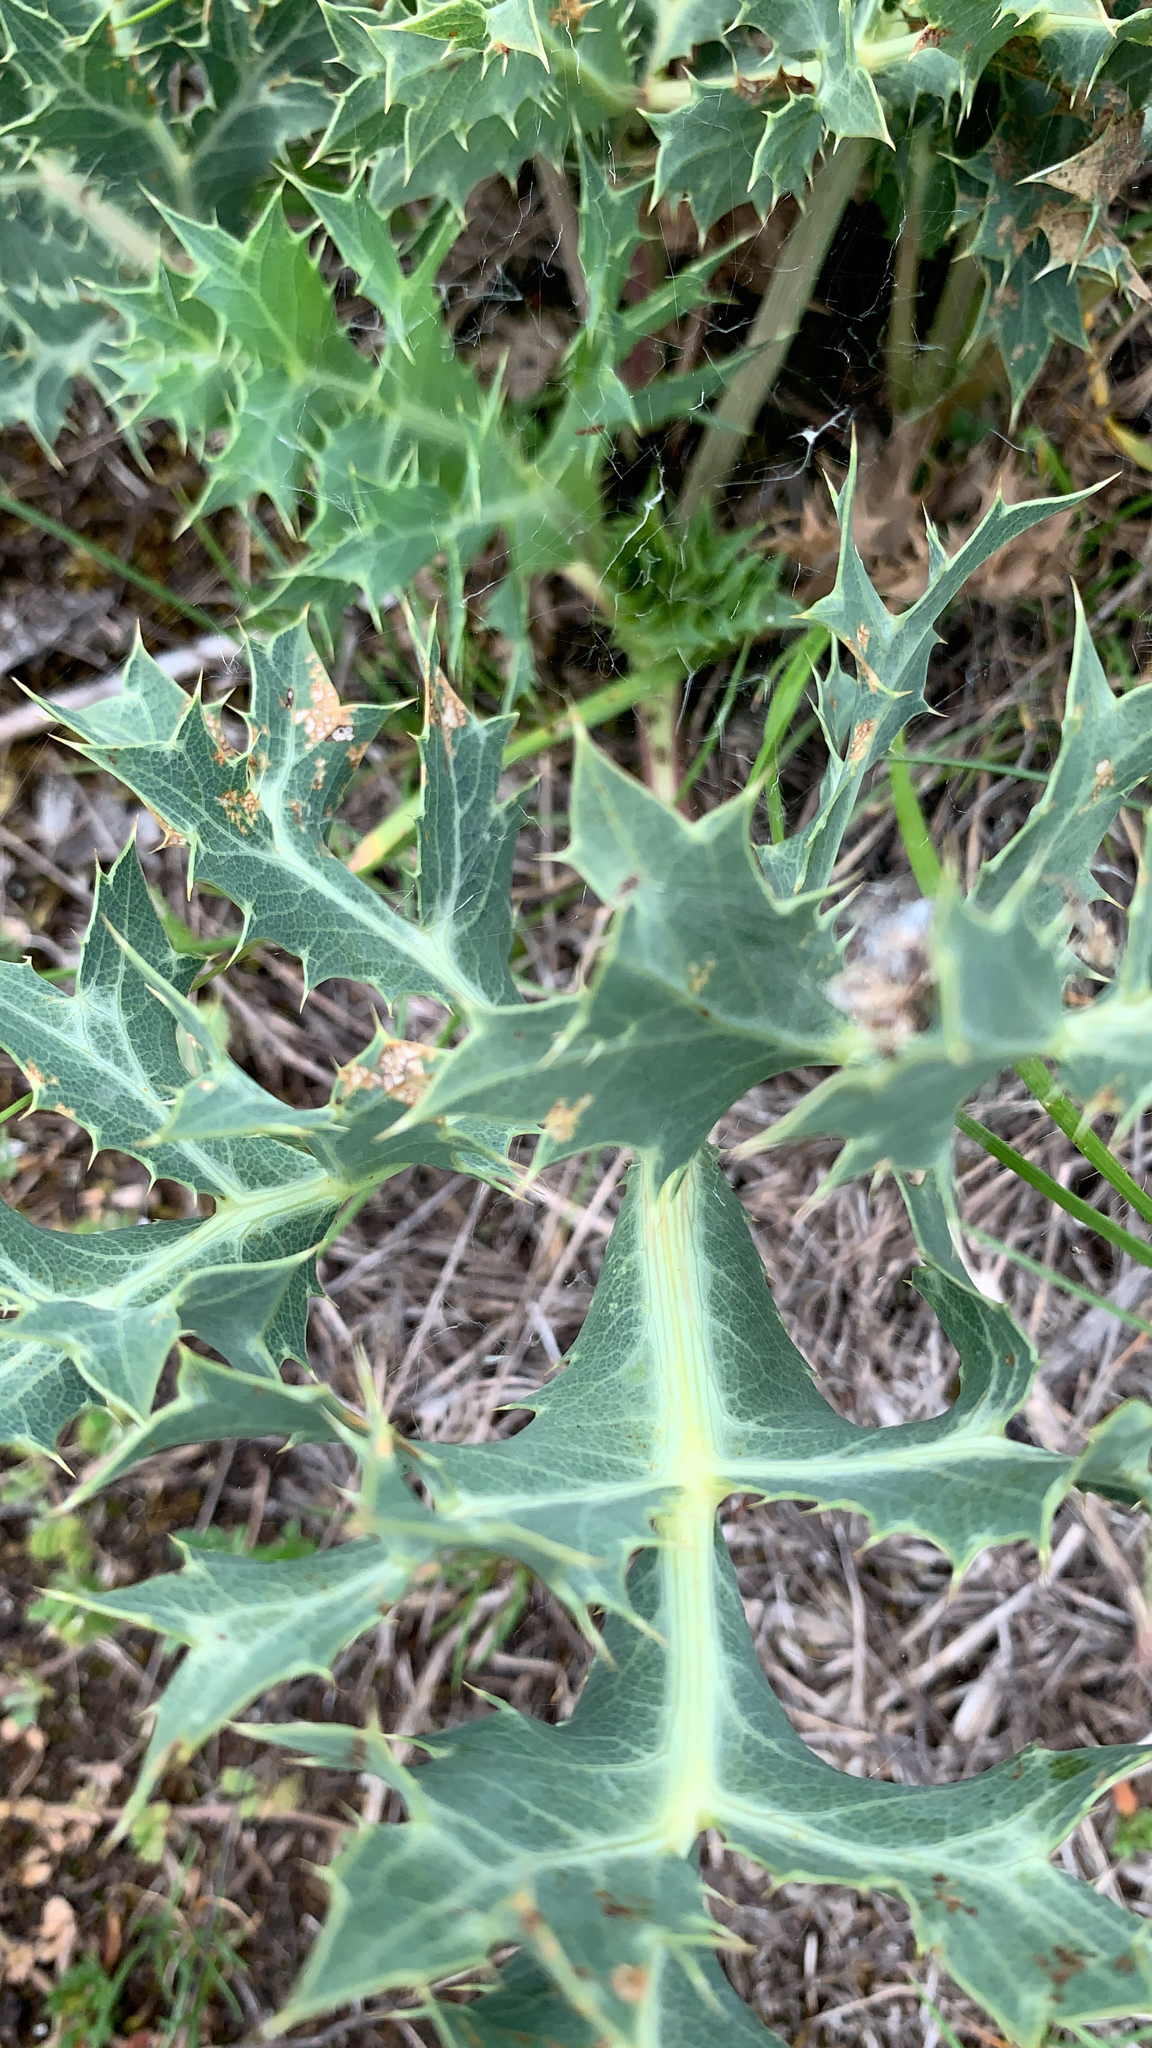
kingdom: Plantae
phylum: Tracheophyta
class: Magnoliopsida
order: Apiales
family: Apiaceae
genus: Eryngium
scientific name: Eryngium campestre
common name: Field eryngo
